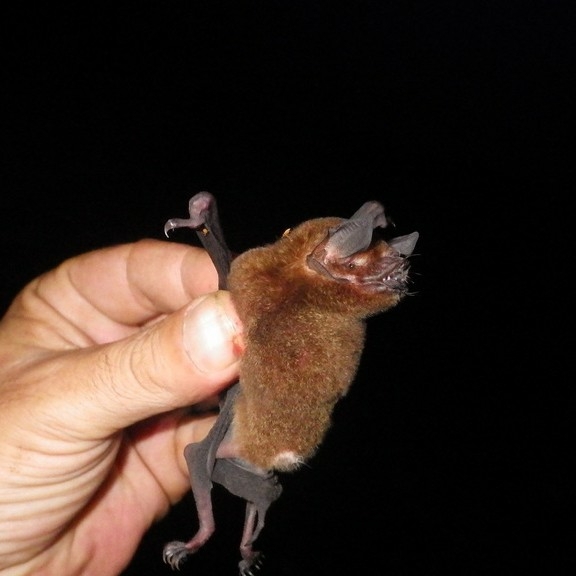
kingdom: Animalia
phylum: Chordata
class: Mammalia
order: Chiroptera
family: Mormoopidae
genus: Pteronotus
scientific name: Pteronotus
